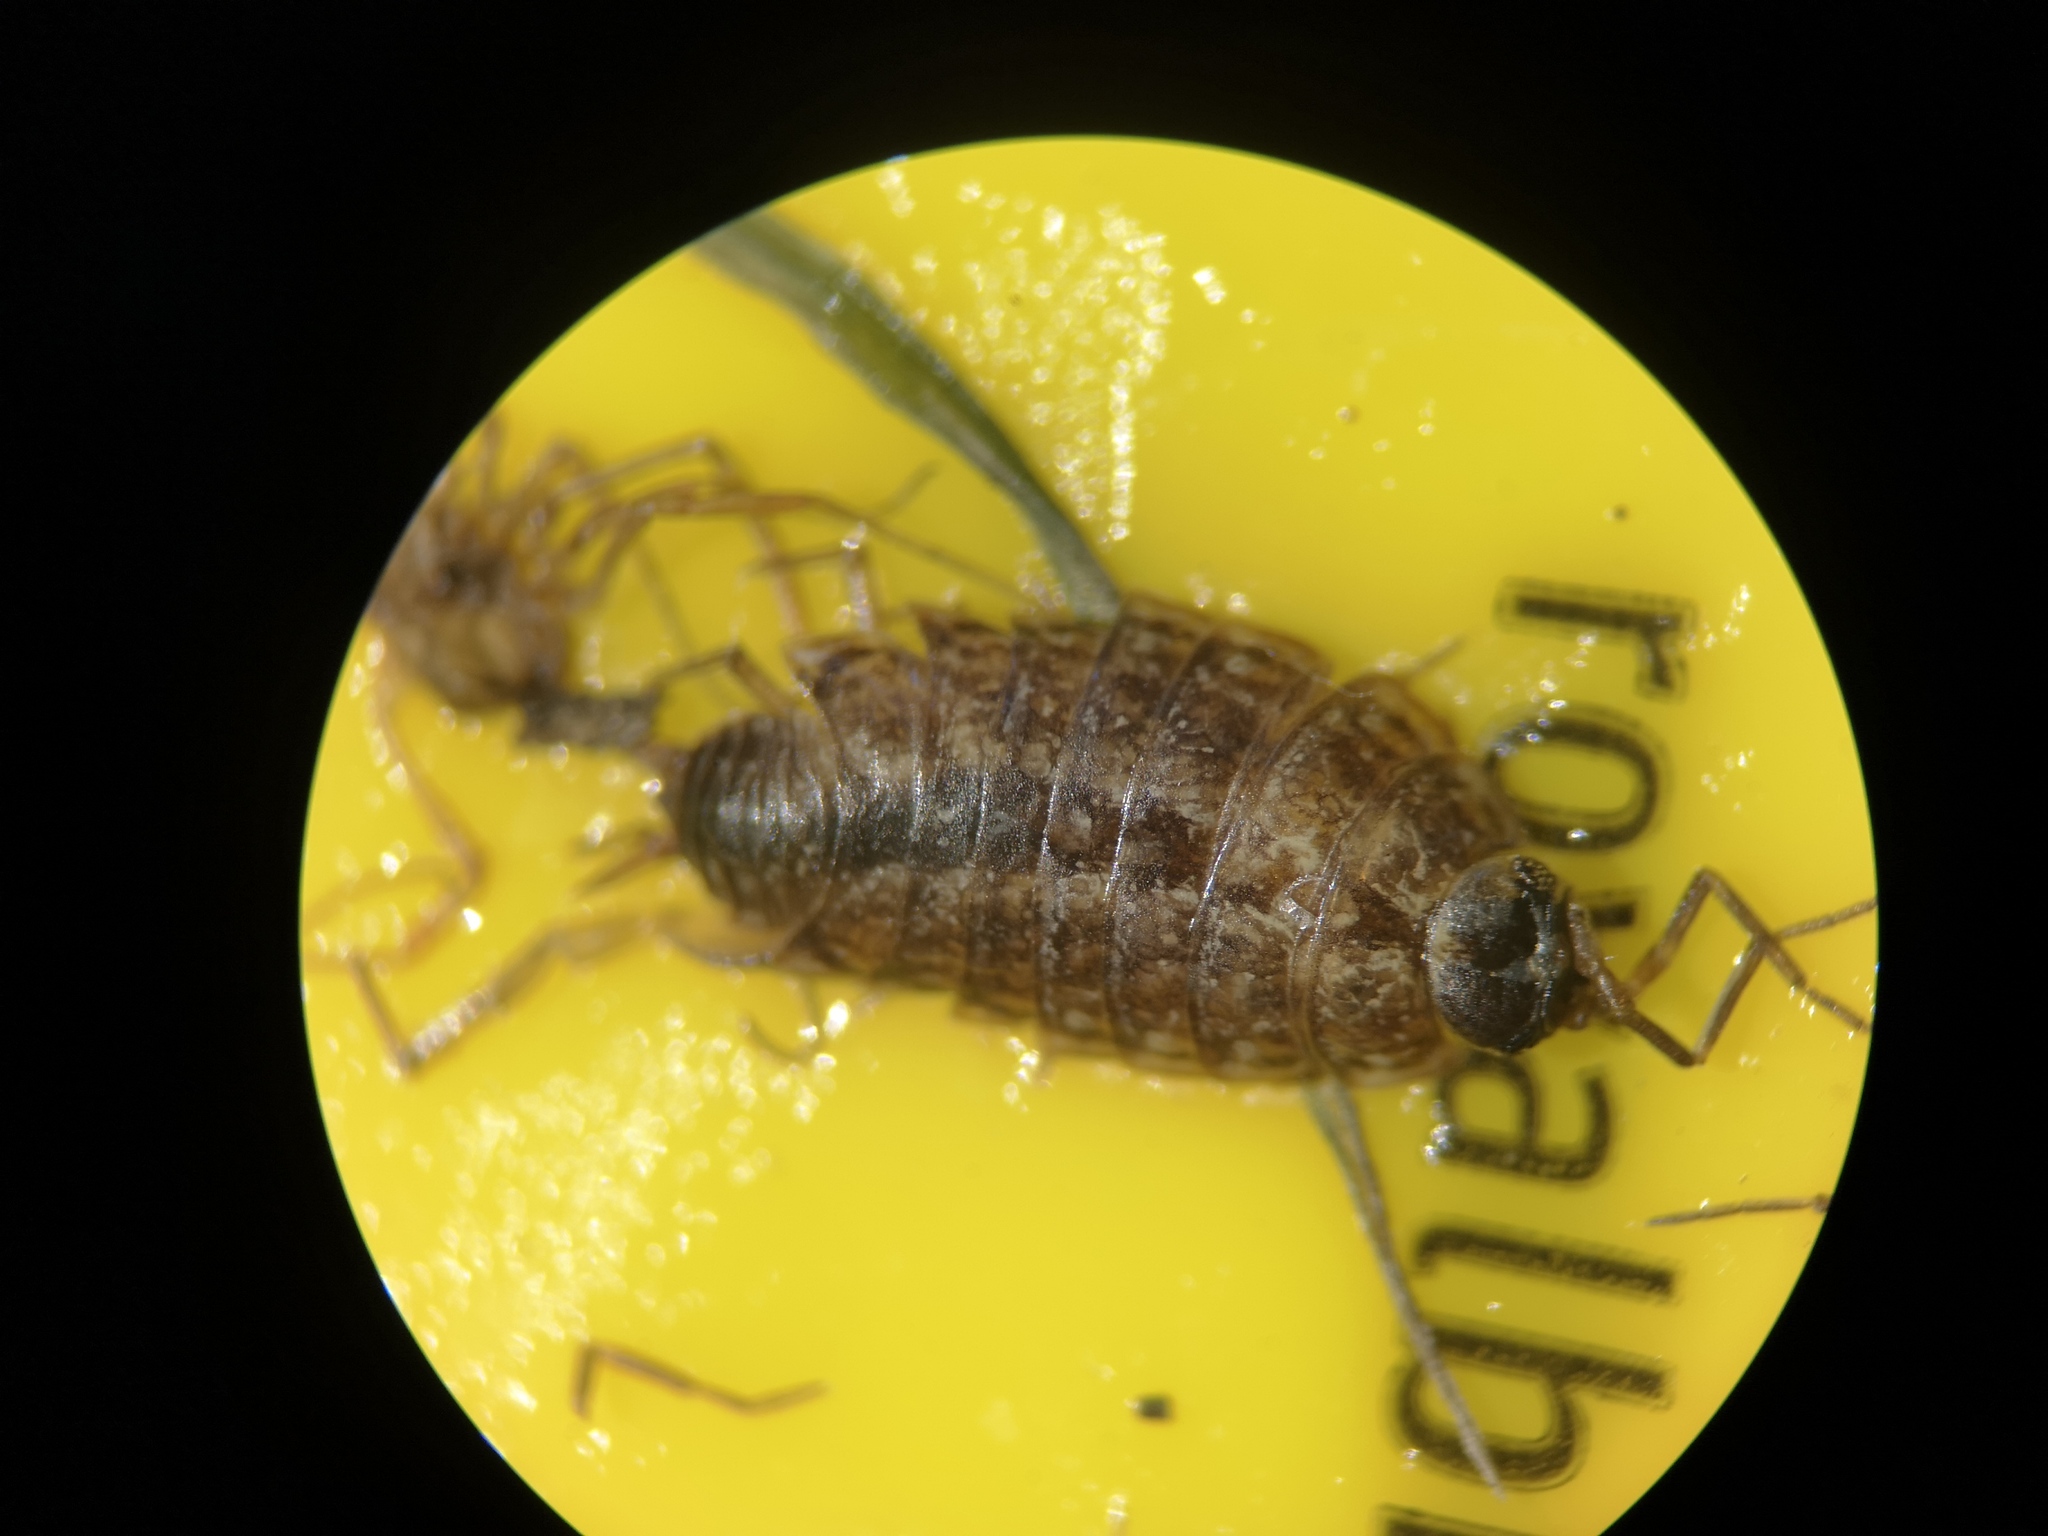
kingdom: Animalia
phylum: Arthropoda
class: Malacostraca
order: Isopoda
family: Philosciidae
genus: Philoscia
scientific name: Philoscia muscorum
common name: Common striped woodlouse
